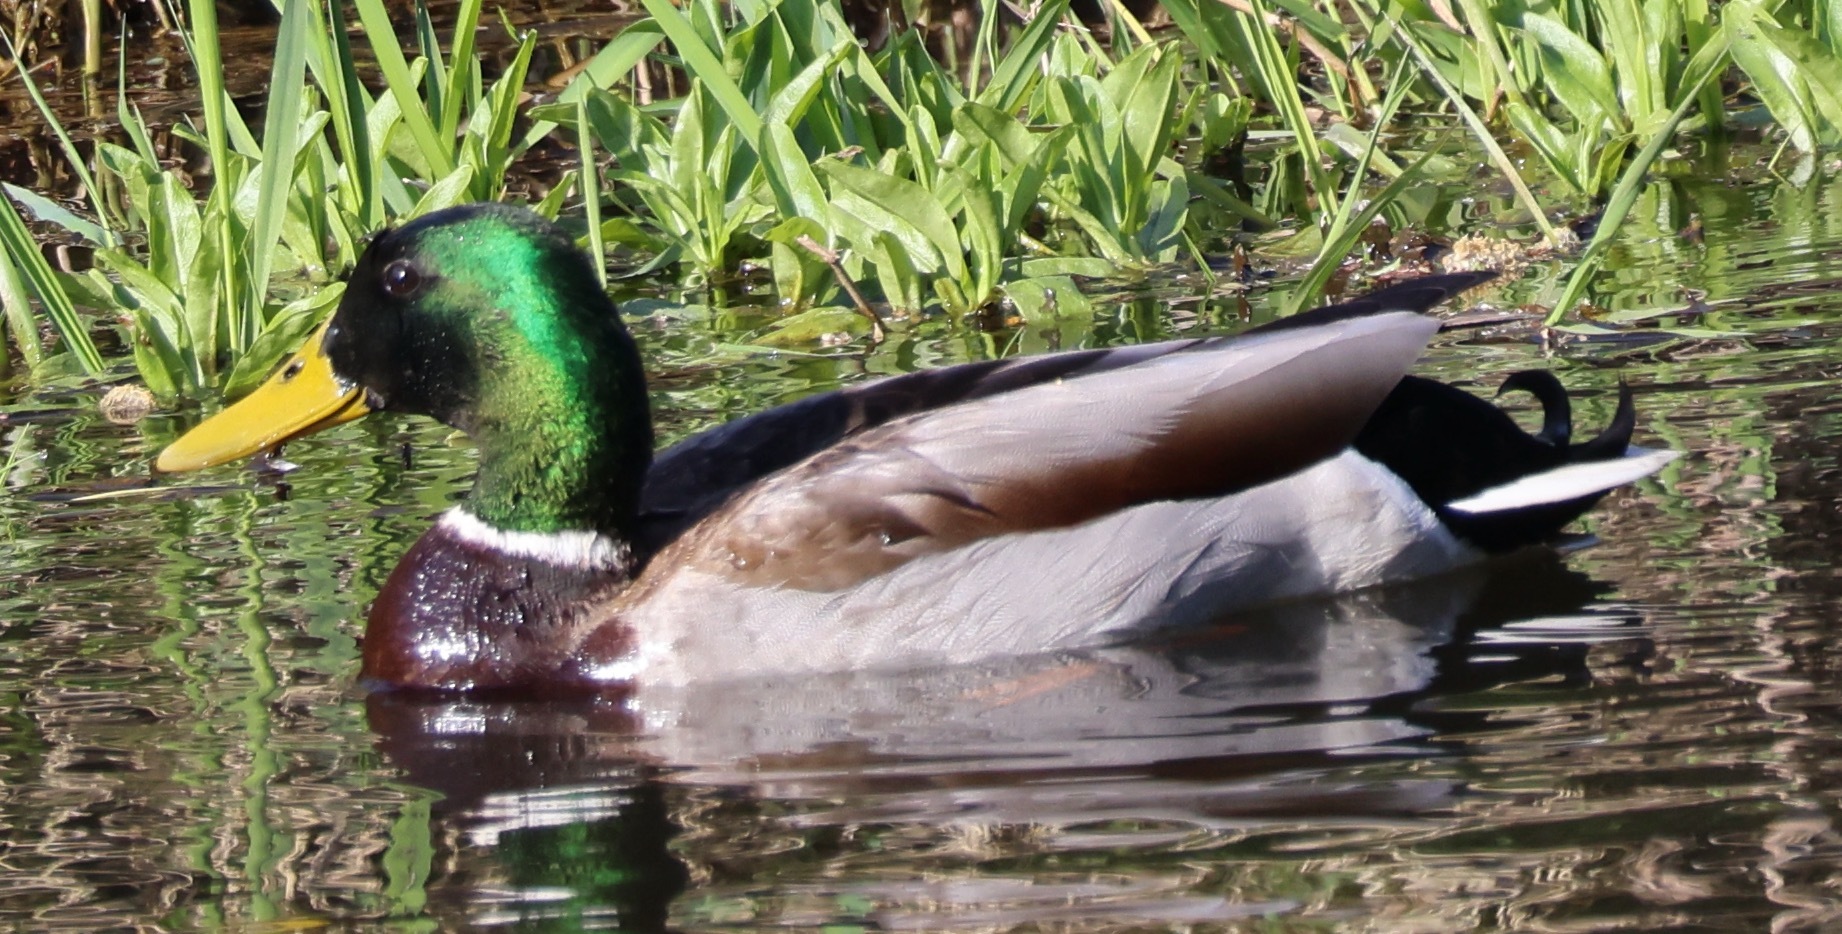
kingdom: Animalia
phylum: Chordata
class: Aves
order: Anseriformes
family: Anatidae
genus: Anas
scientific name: Anas platyrhynchos
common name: Mallard
